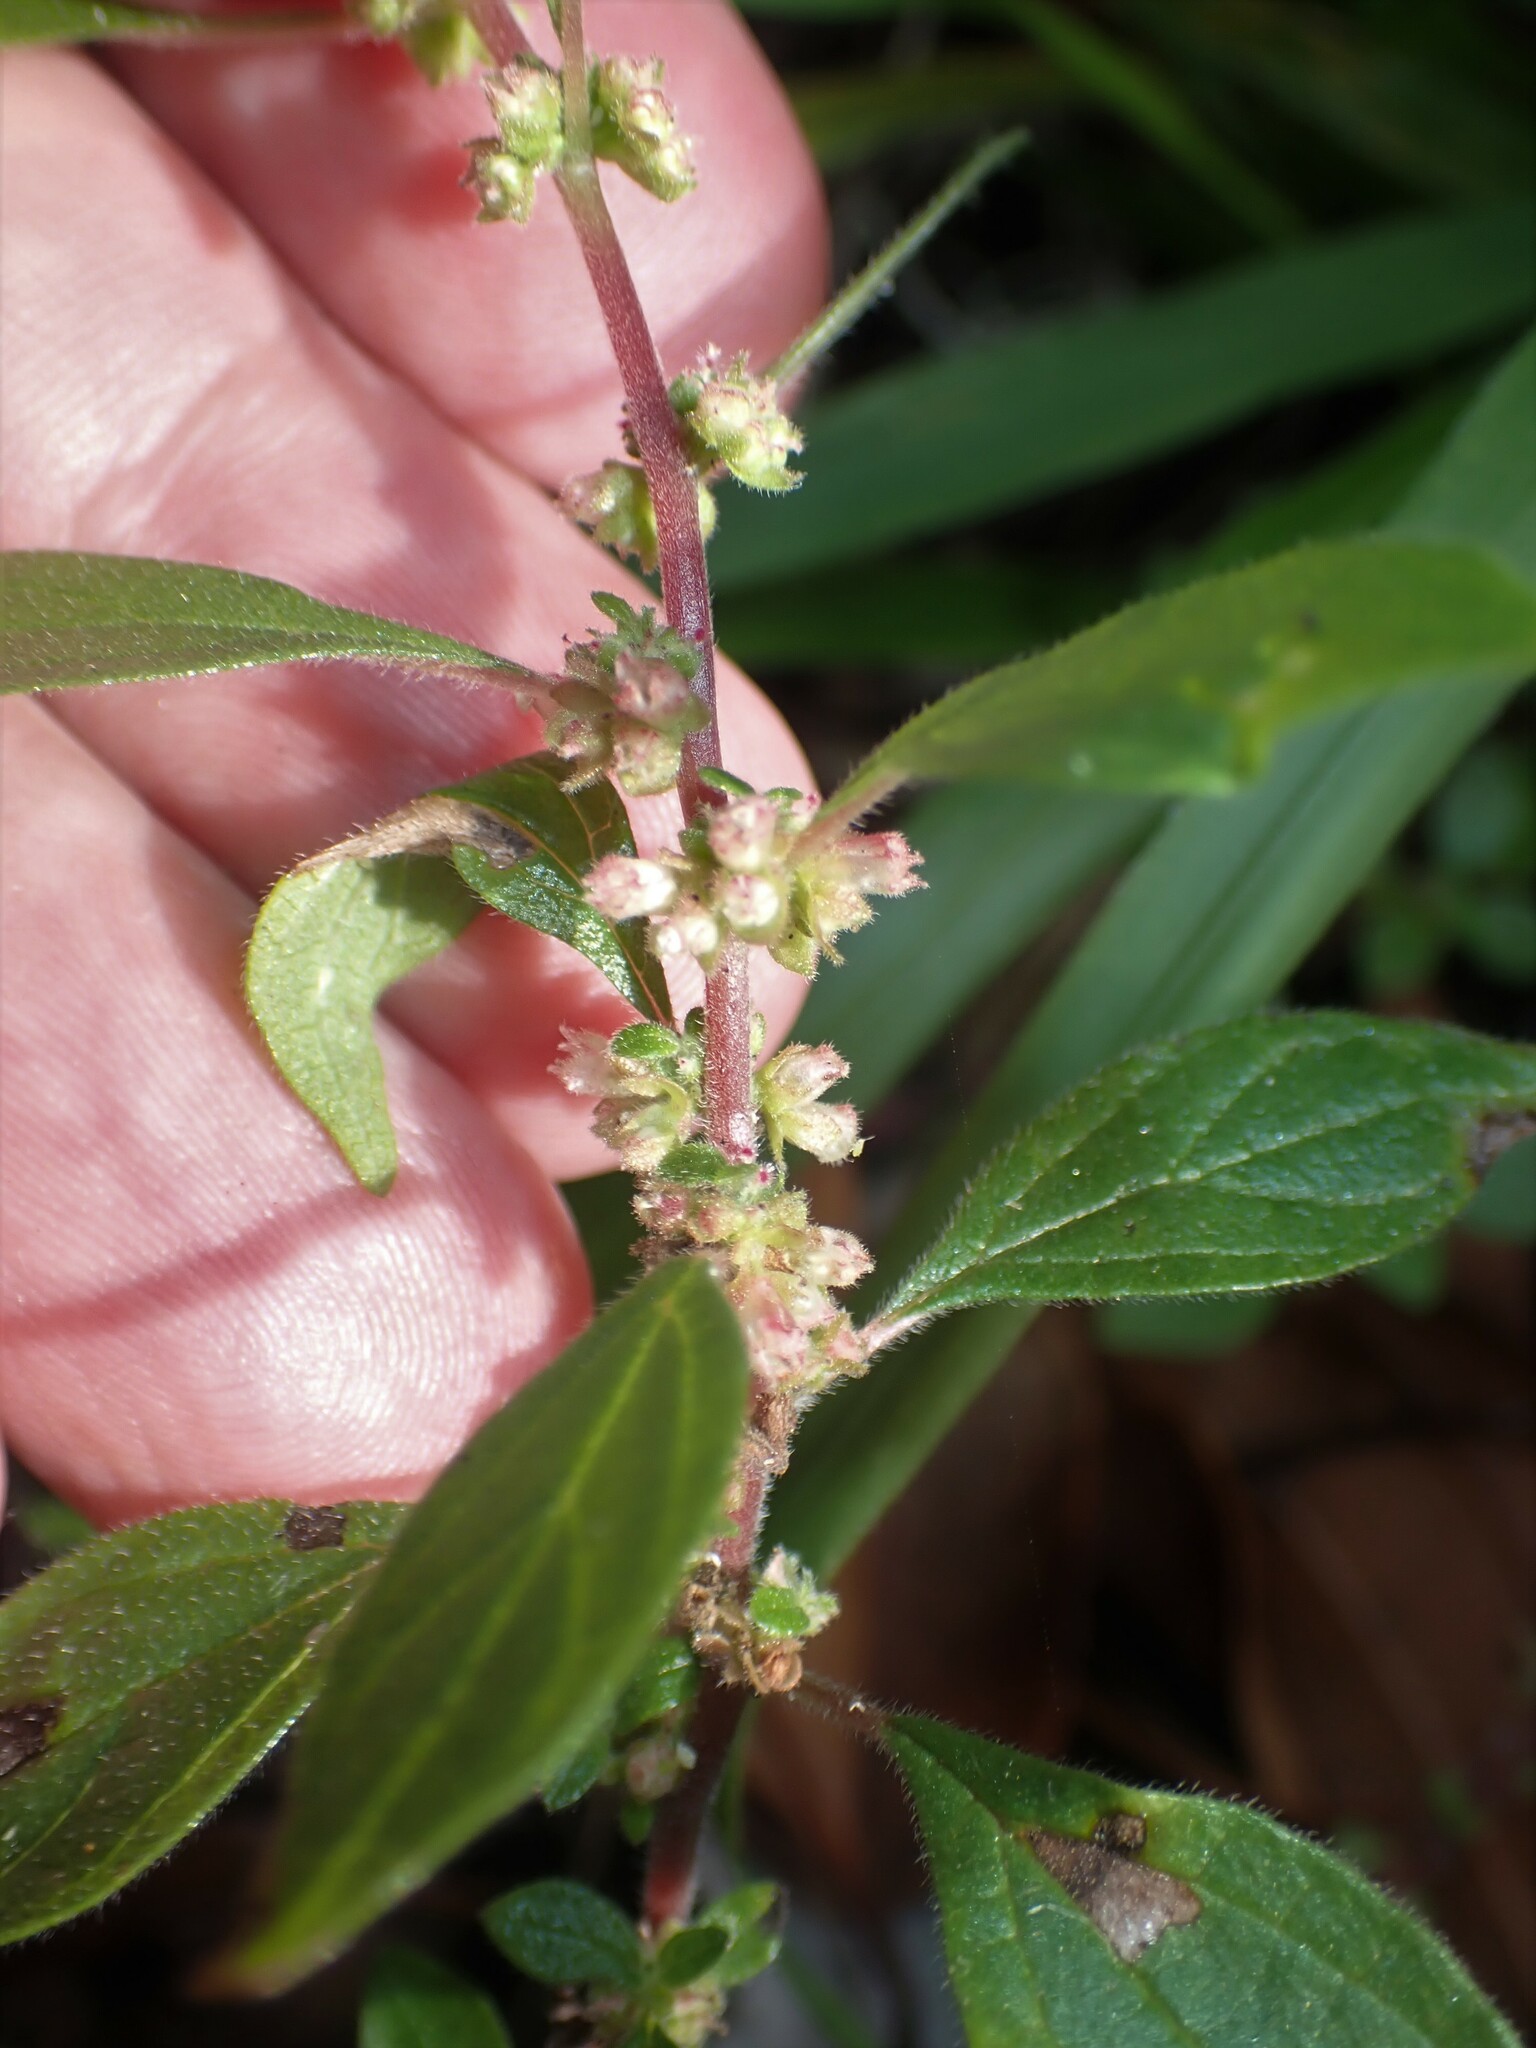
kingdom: Plantae
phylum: Tracheophyta
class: Magnoliopsida
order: Rosales
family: Urticaceae
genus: Parietaria
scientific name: Parietaria judaica
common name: Pellitory-of-the-wall
